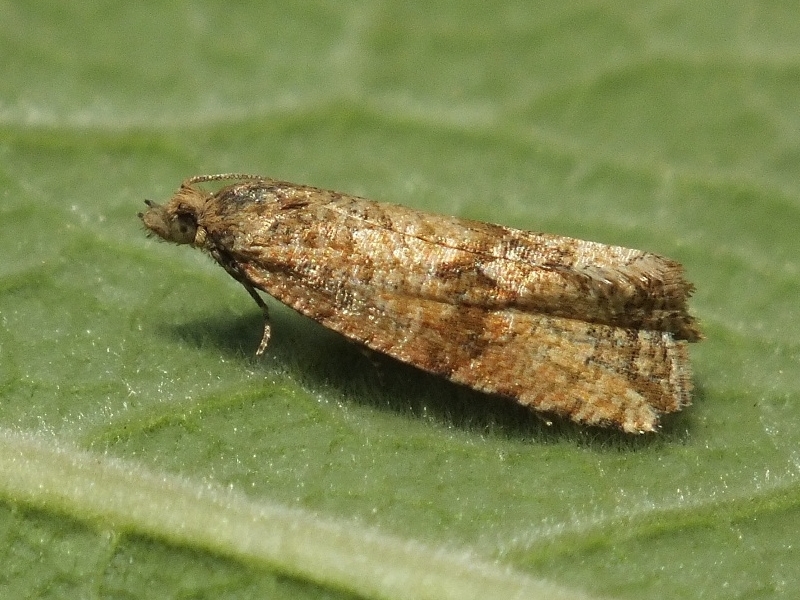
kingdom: Animalia
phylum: Arthropoda
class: Insecta
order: Lepidoptera
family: Tortricidae
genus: Celypha
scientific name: Celypha anatoliana
